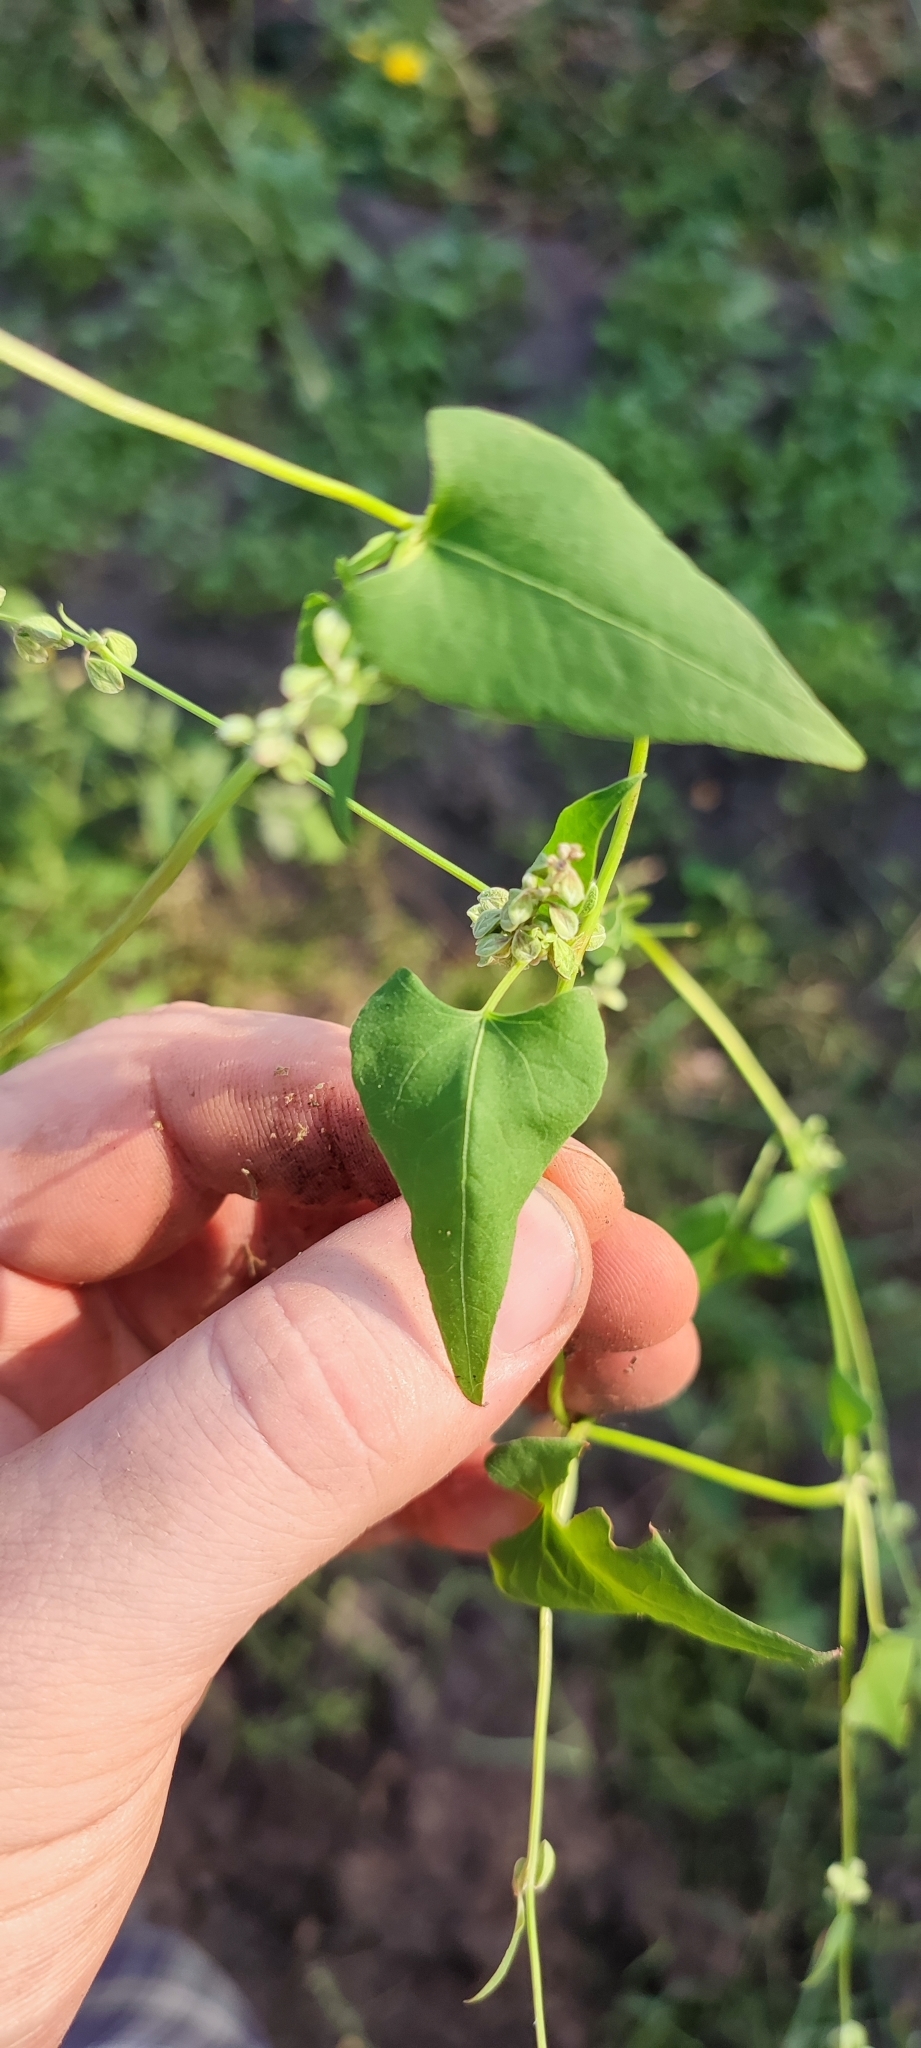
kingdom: Plantae
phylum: Tracheophyta
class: Magnoliopsida
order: Caryophyllales
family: Polygonaceae
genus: Fallopia
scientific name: Fallopia convolvulus
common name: Black bindweed
